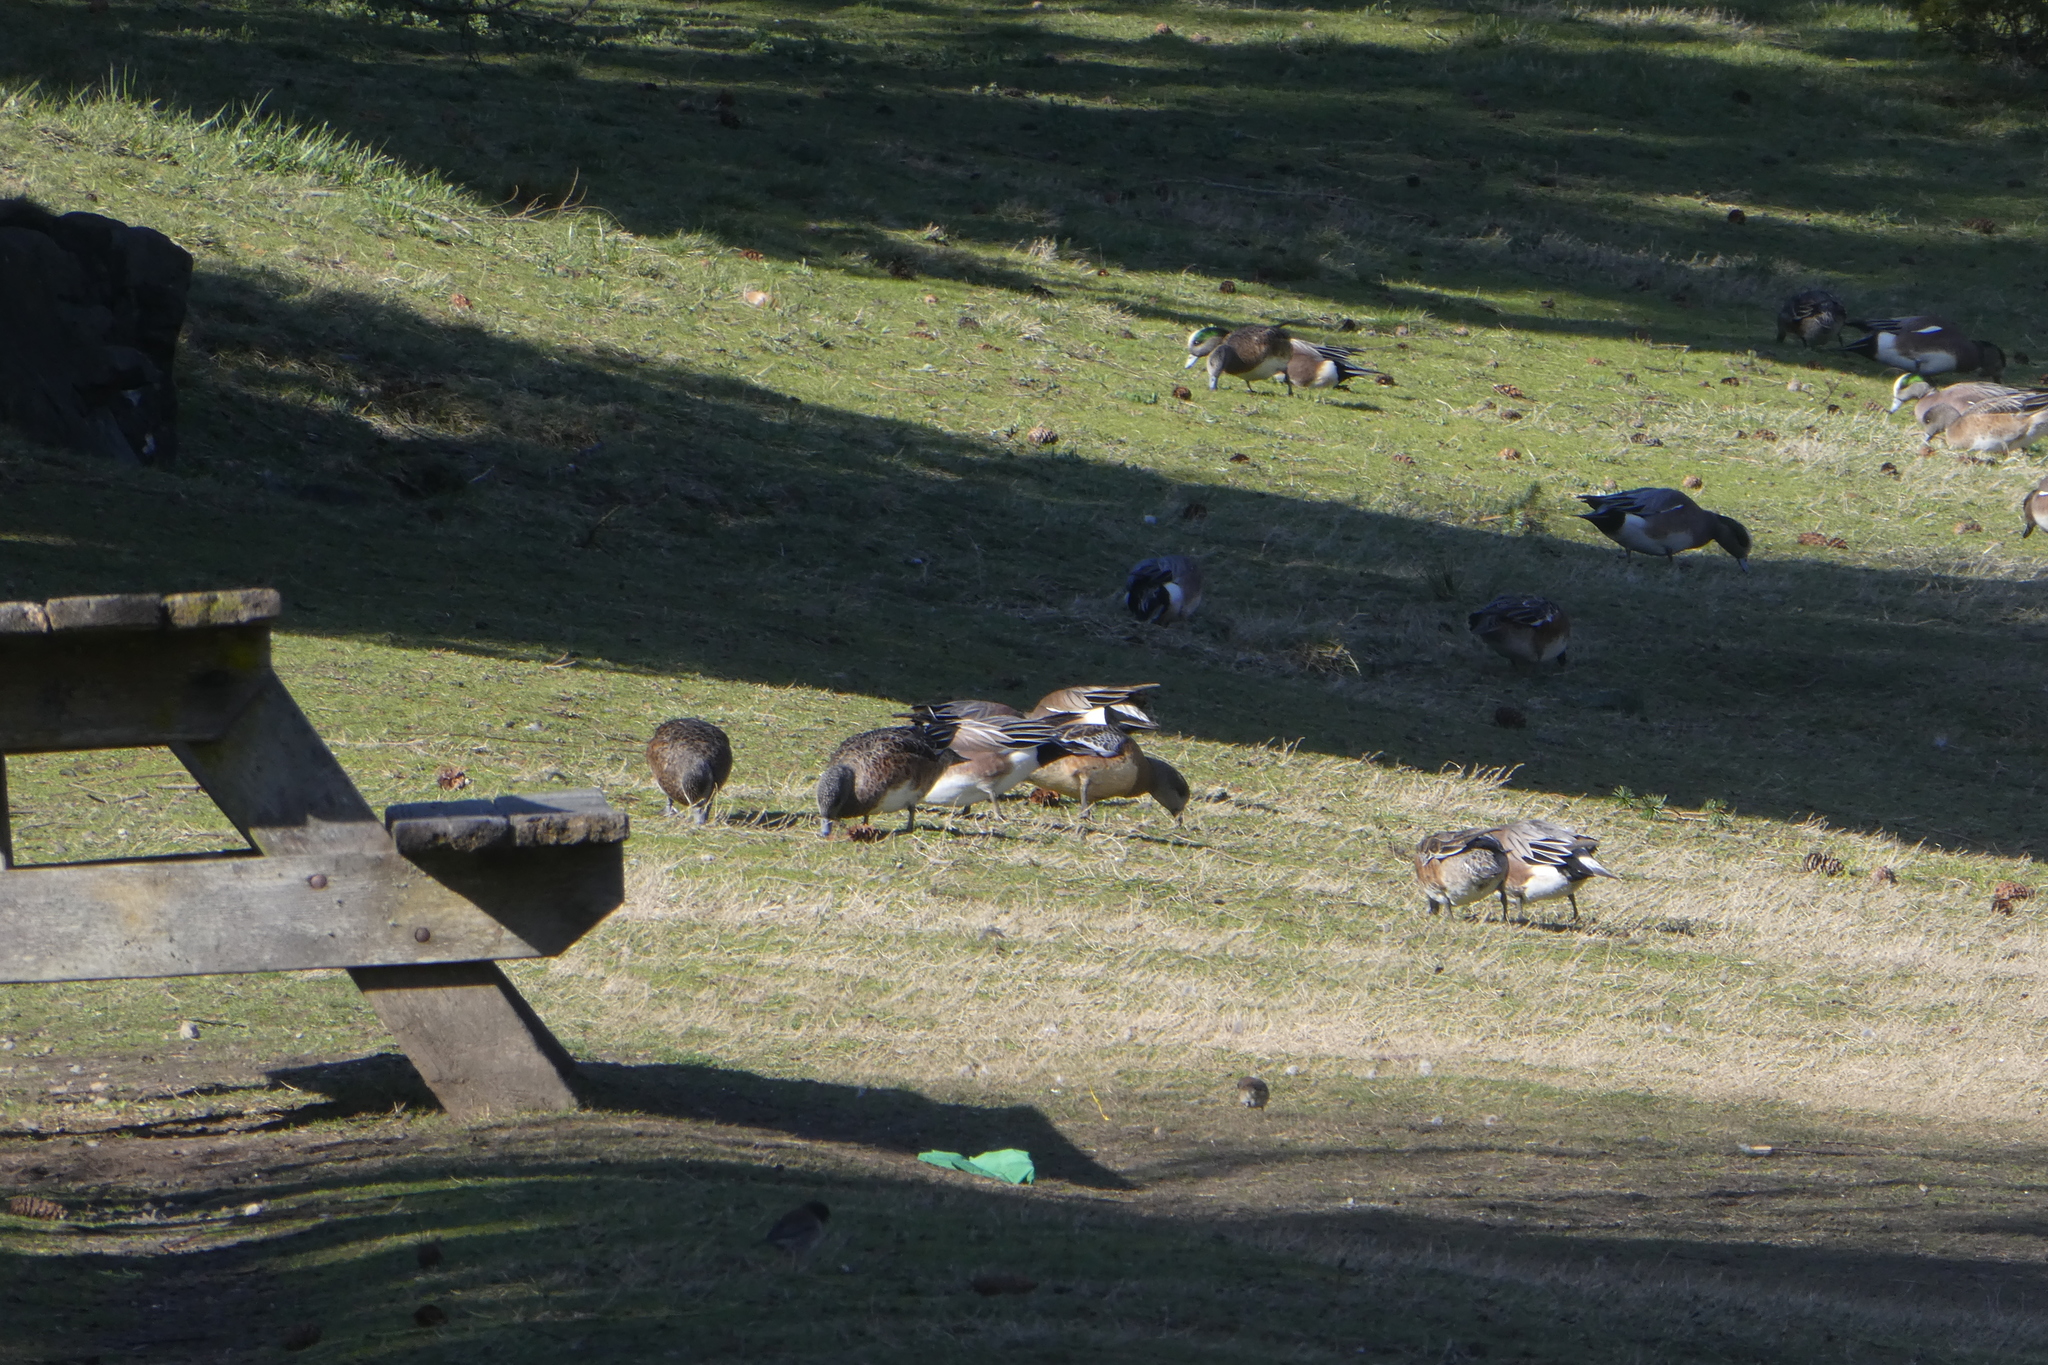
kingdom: Animalia
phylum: Chordata
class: Aves
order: Anseriformes
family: Anatidae
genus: Mareca
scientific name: Mareca americana
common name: American wigeon
